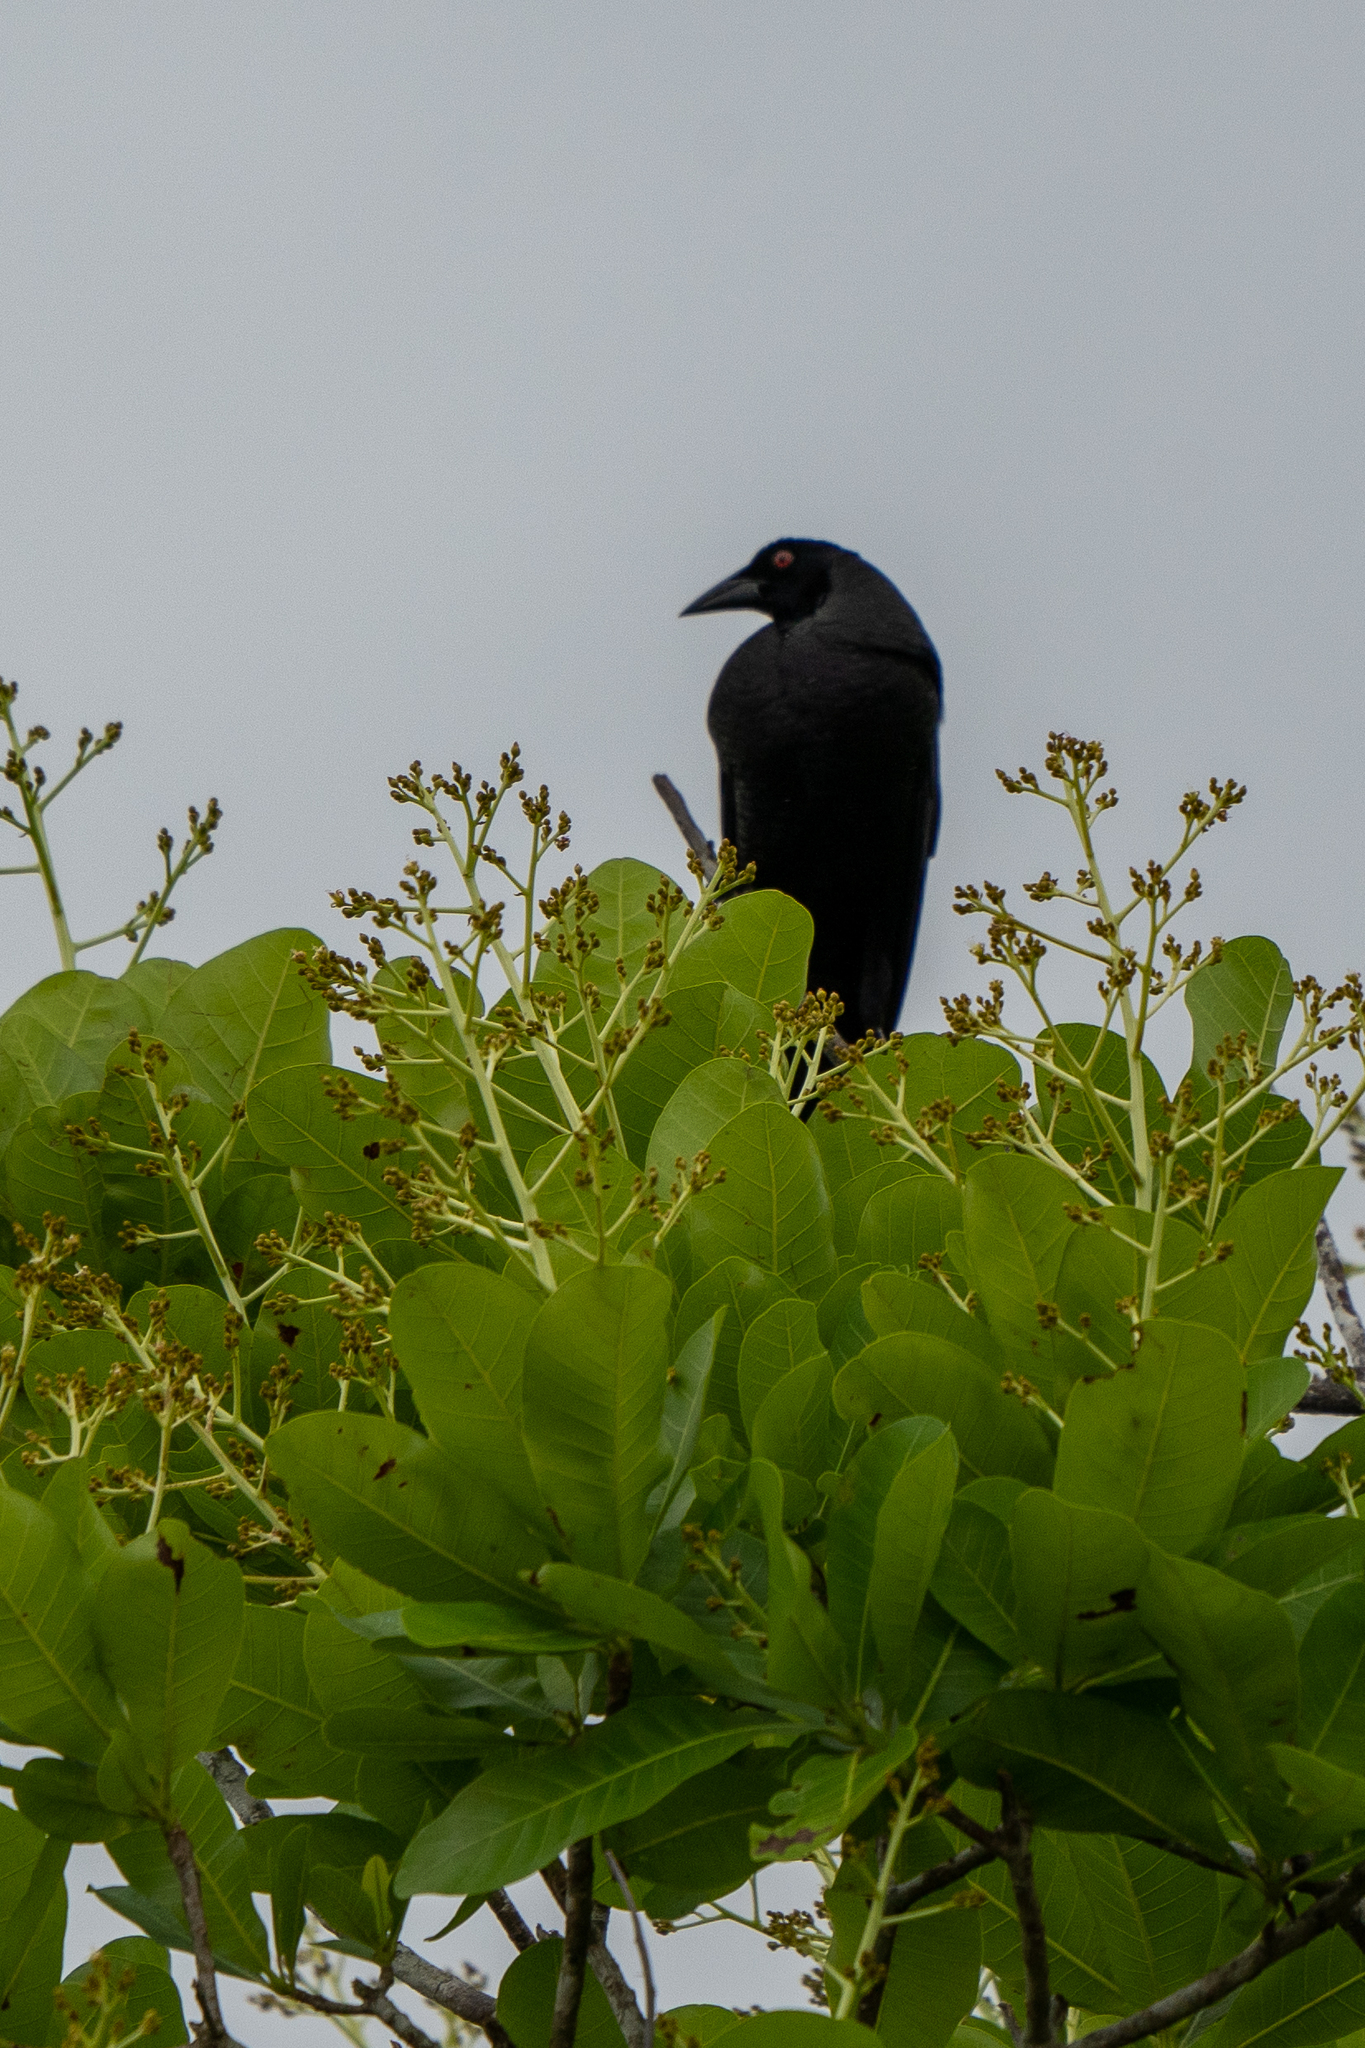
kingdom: Animalia
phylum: Chordata
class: Aves
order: Passeriformes
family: Icteridae
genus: Molothrus
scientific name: Molothrus oryzivorus
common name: Giant cowbird
